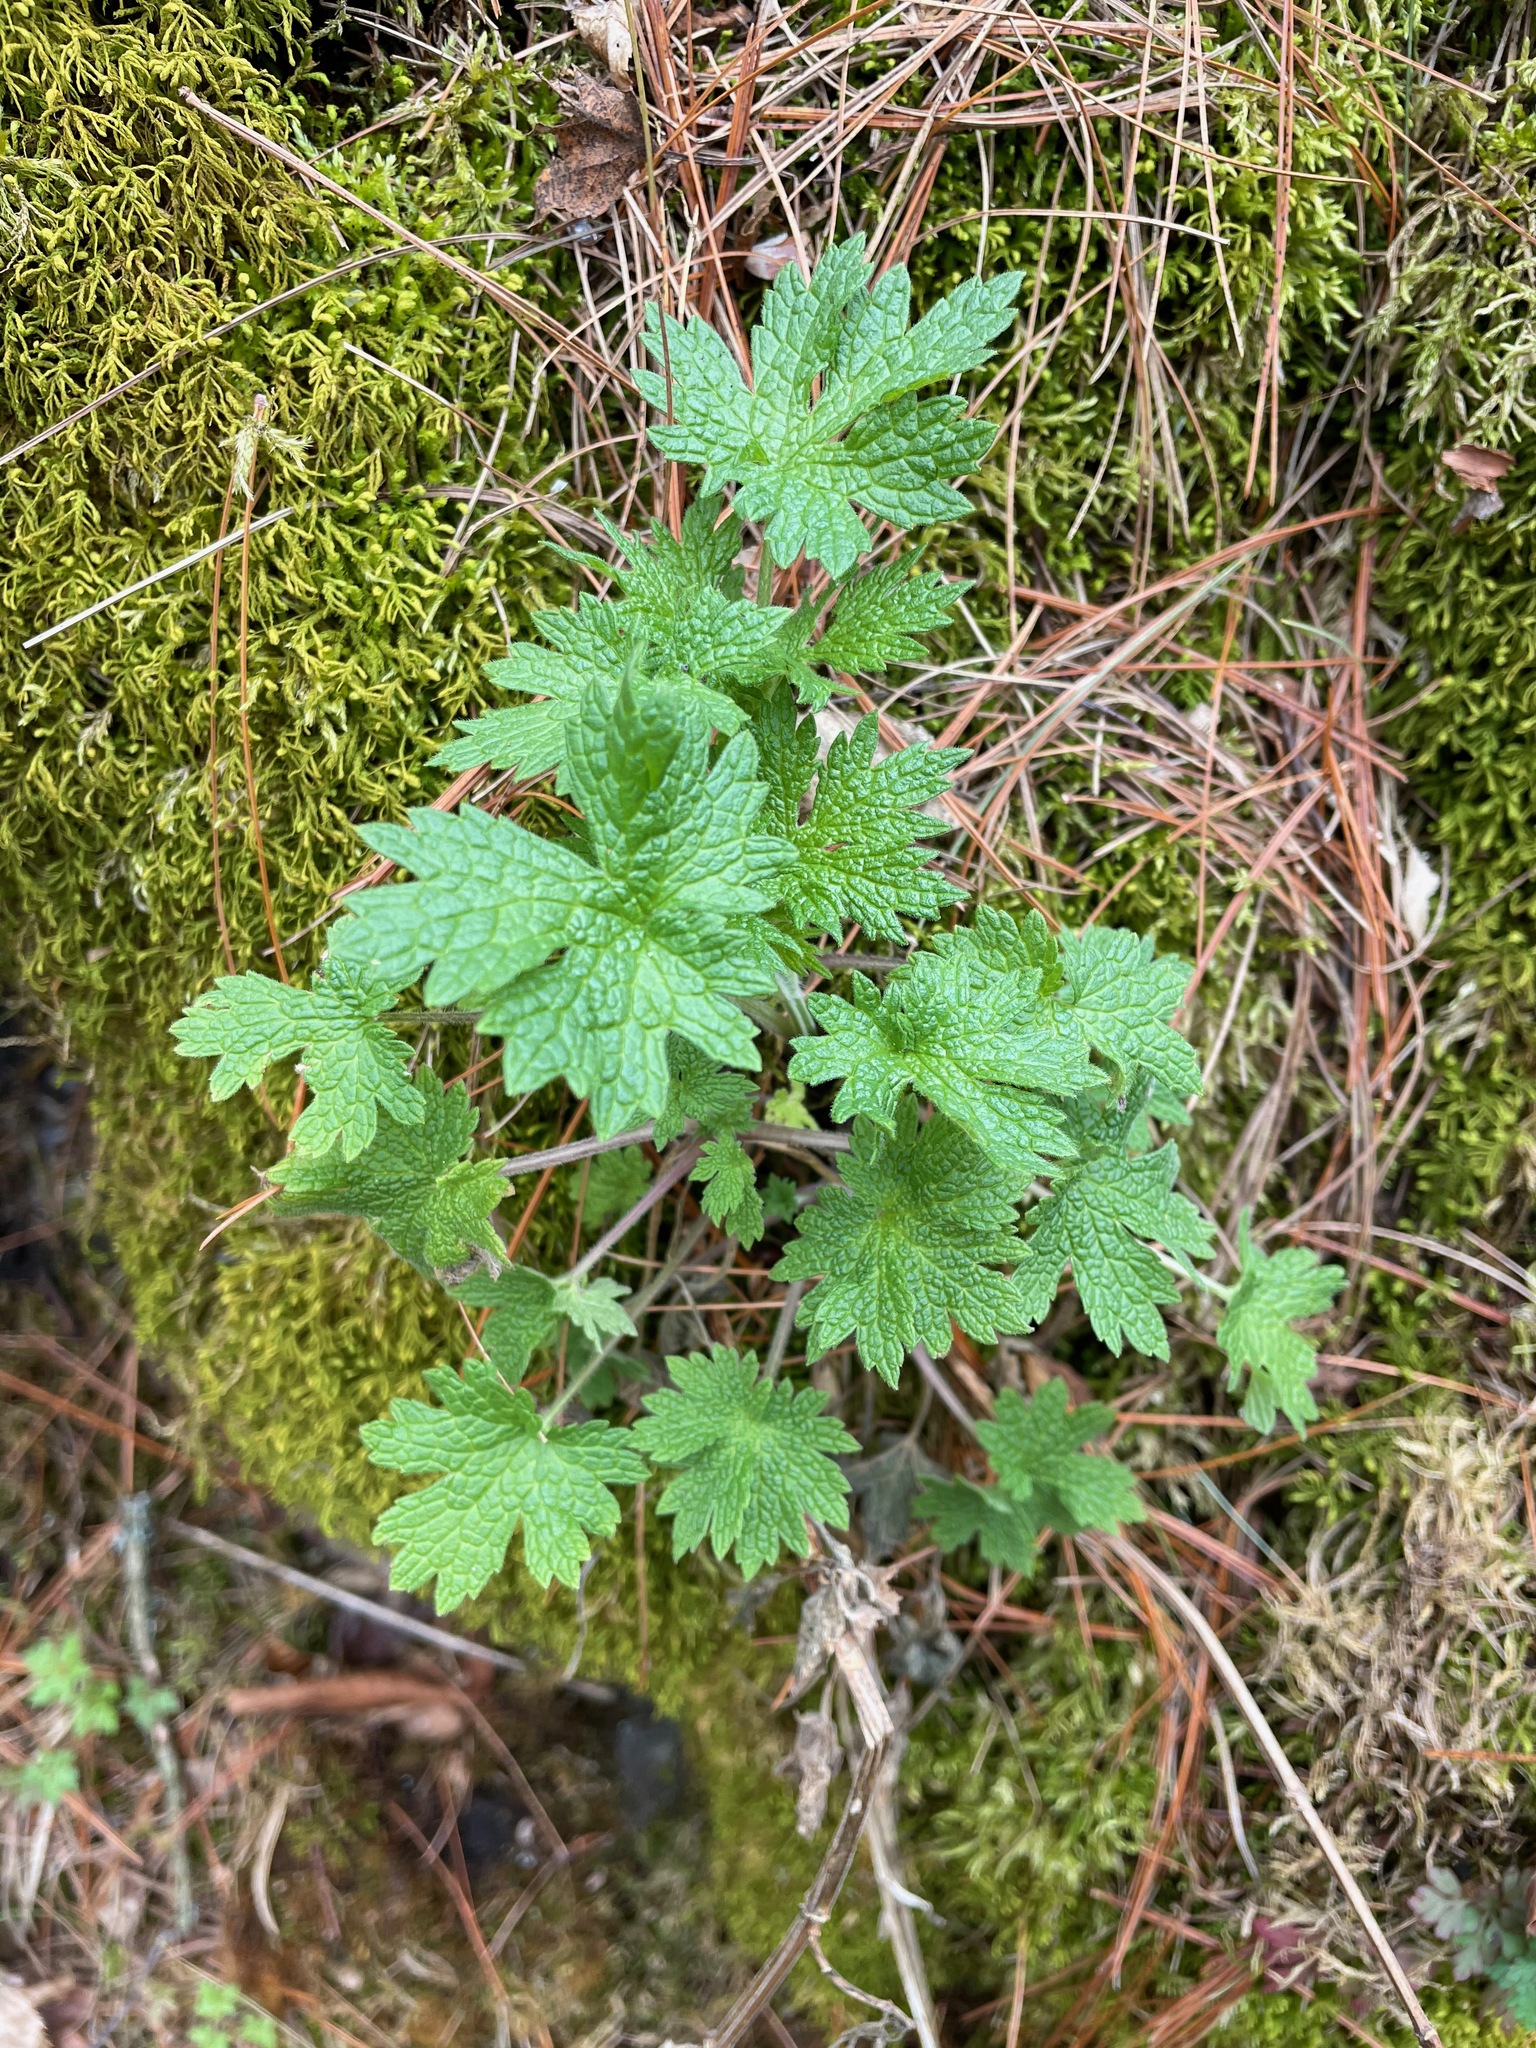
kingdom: Plantae
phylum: Tracheophyta
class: Magnoliopsida
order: Lamiales
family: Lamiaceae
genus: Leonurus
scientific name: Leonurus cardiaca
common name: Motherwort
